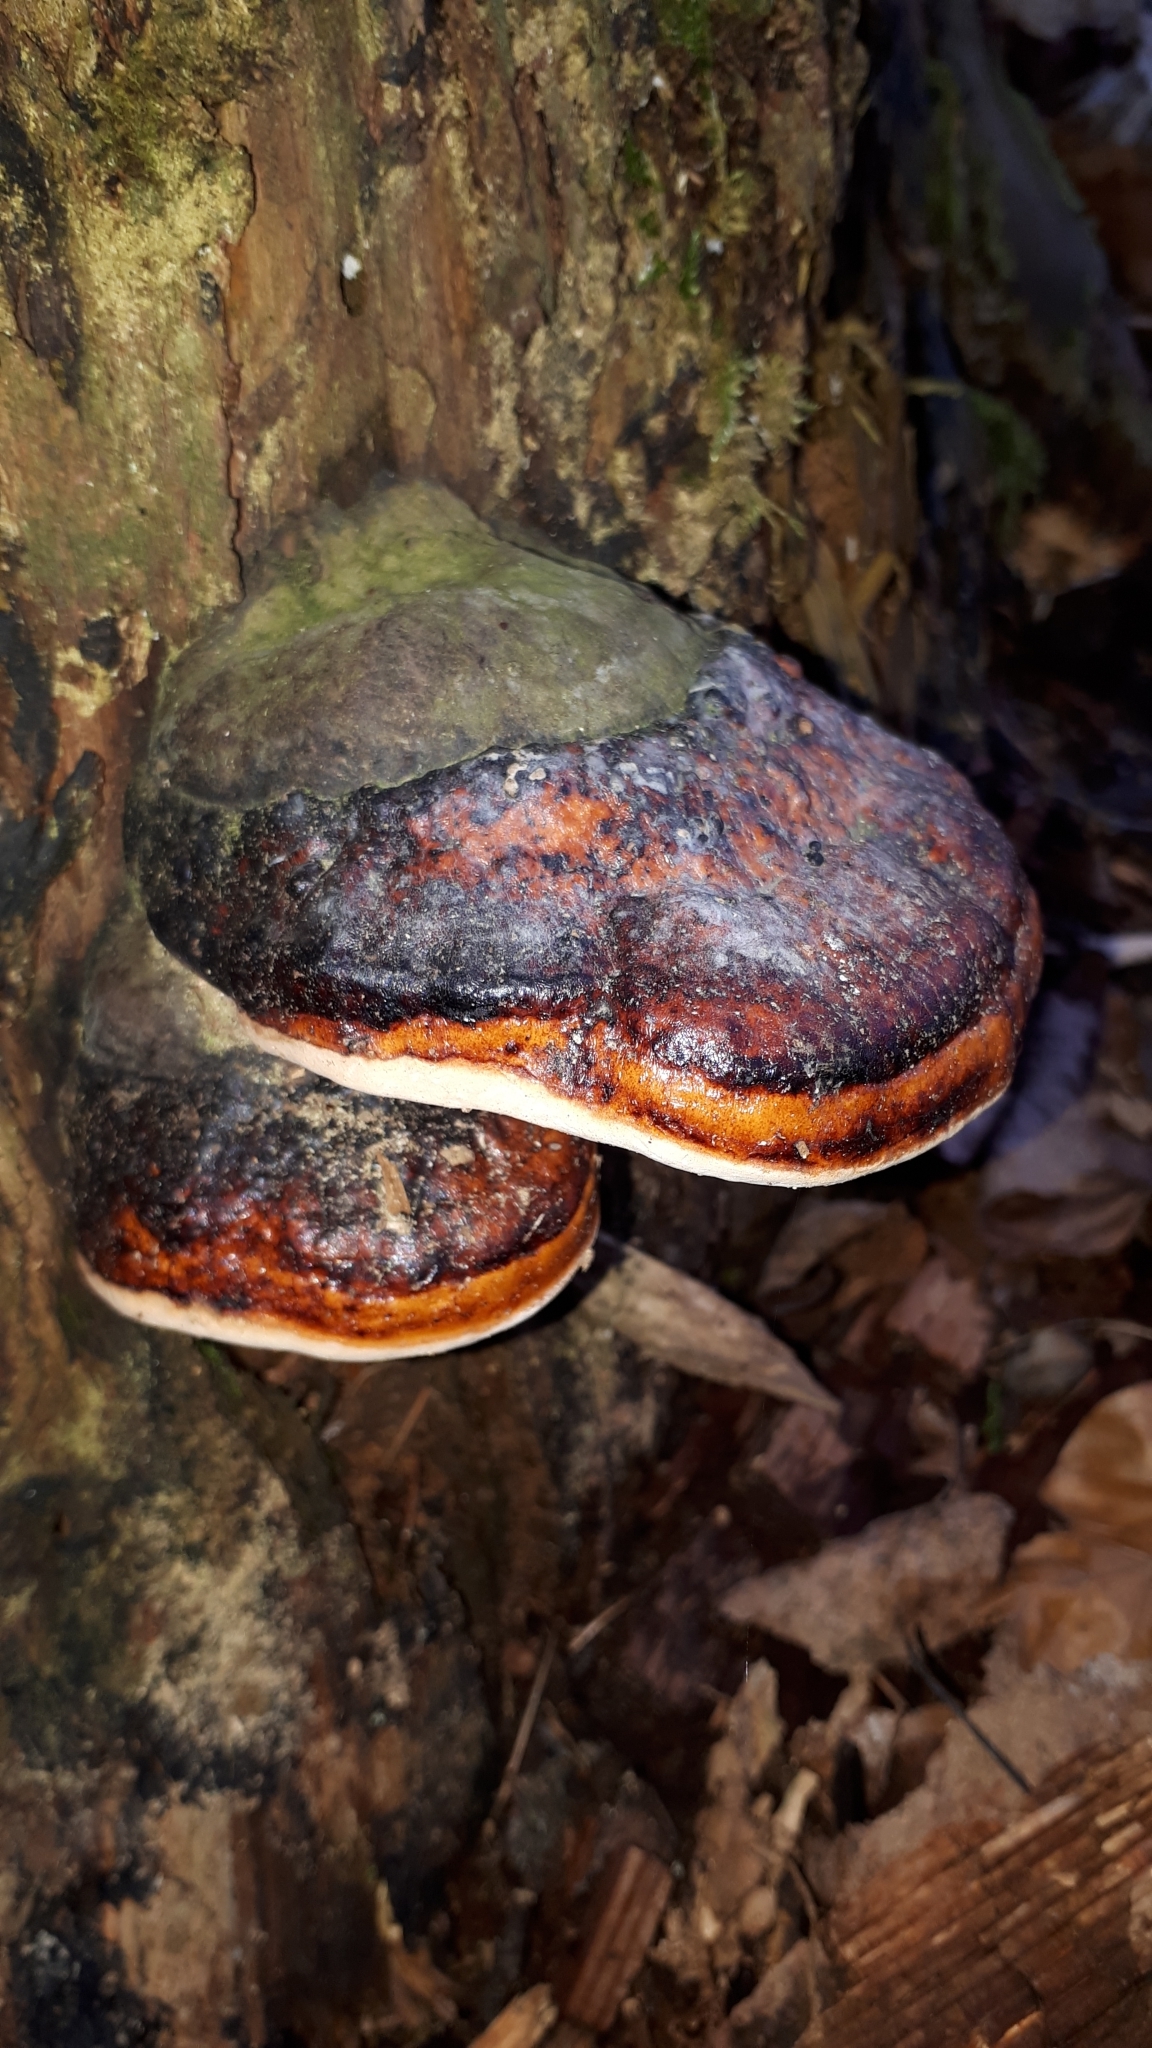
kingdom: Fungi
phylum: Basidiomycota
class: Agaricomycetes
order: Polyporales
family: Fomitopsidaceae
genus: Fomitopsis
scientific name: Fomitopsis pinicola
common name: Red-belted bracket
